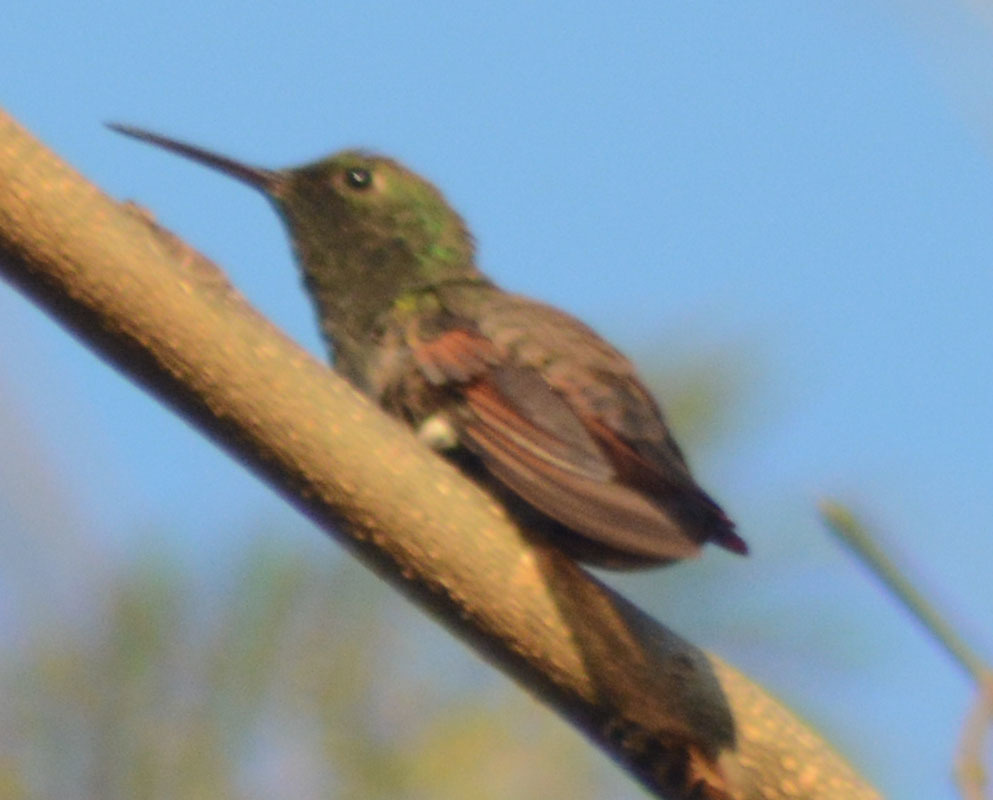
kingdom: Animalia
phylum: Chordata
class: Aves
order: Apodiformes
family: Trochilidae
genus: Saucerottia
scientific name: Saucerottia beryllina
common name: Berylline hummingbird
